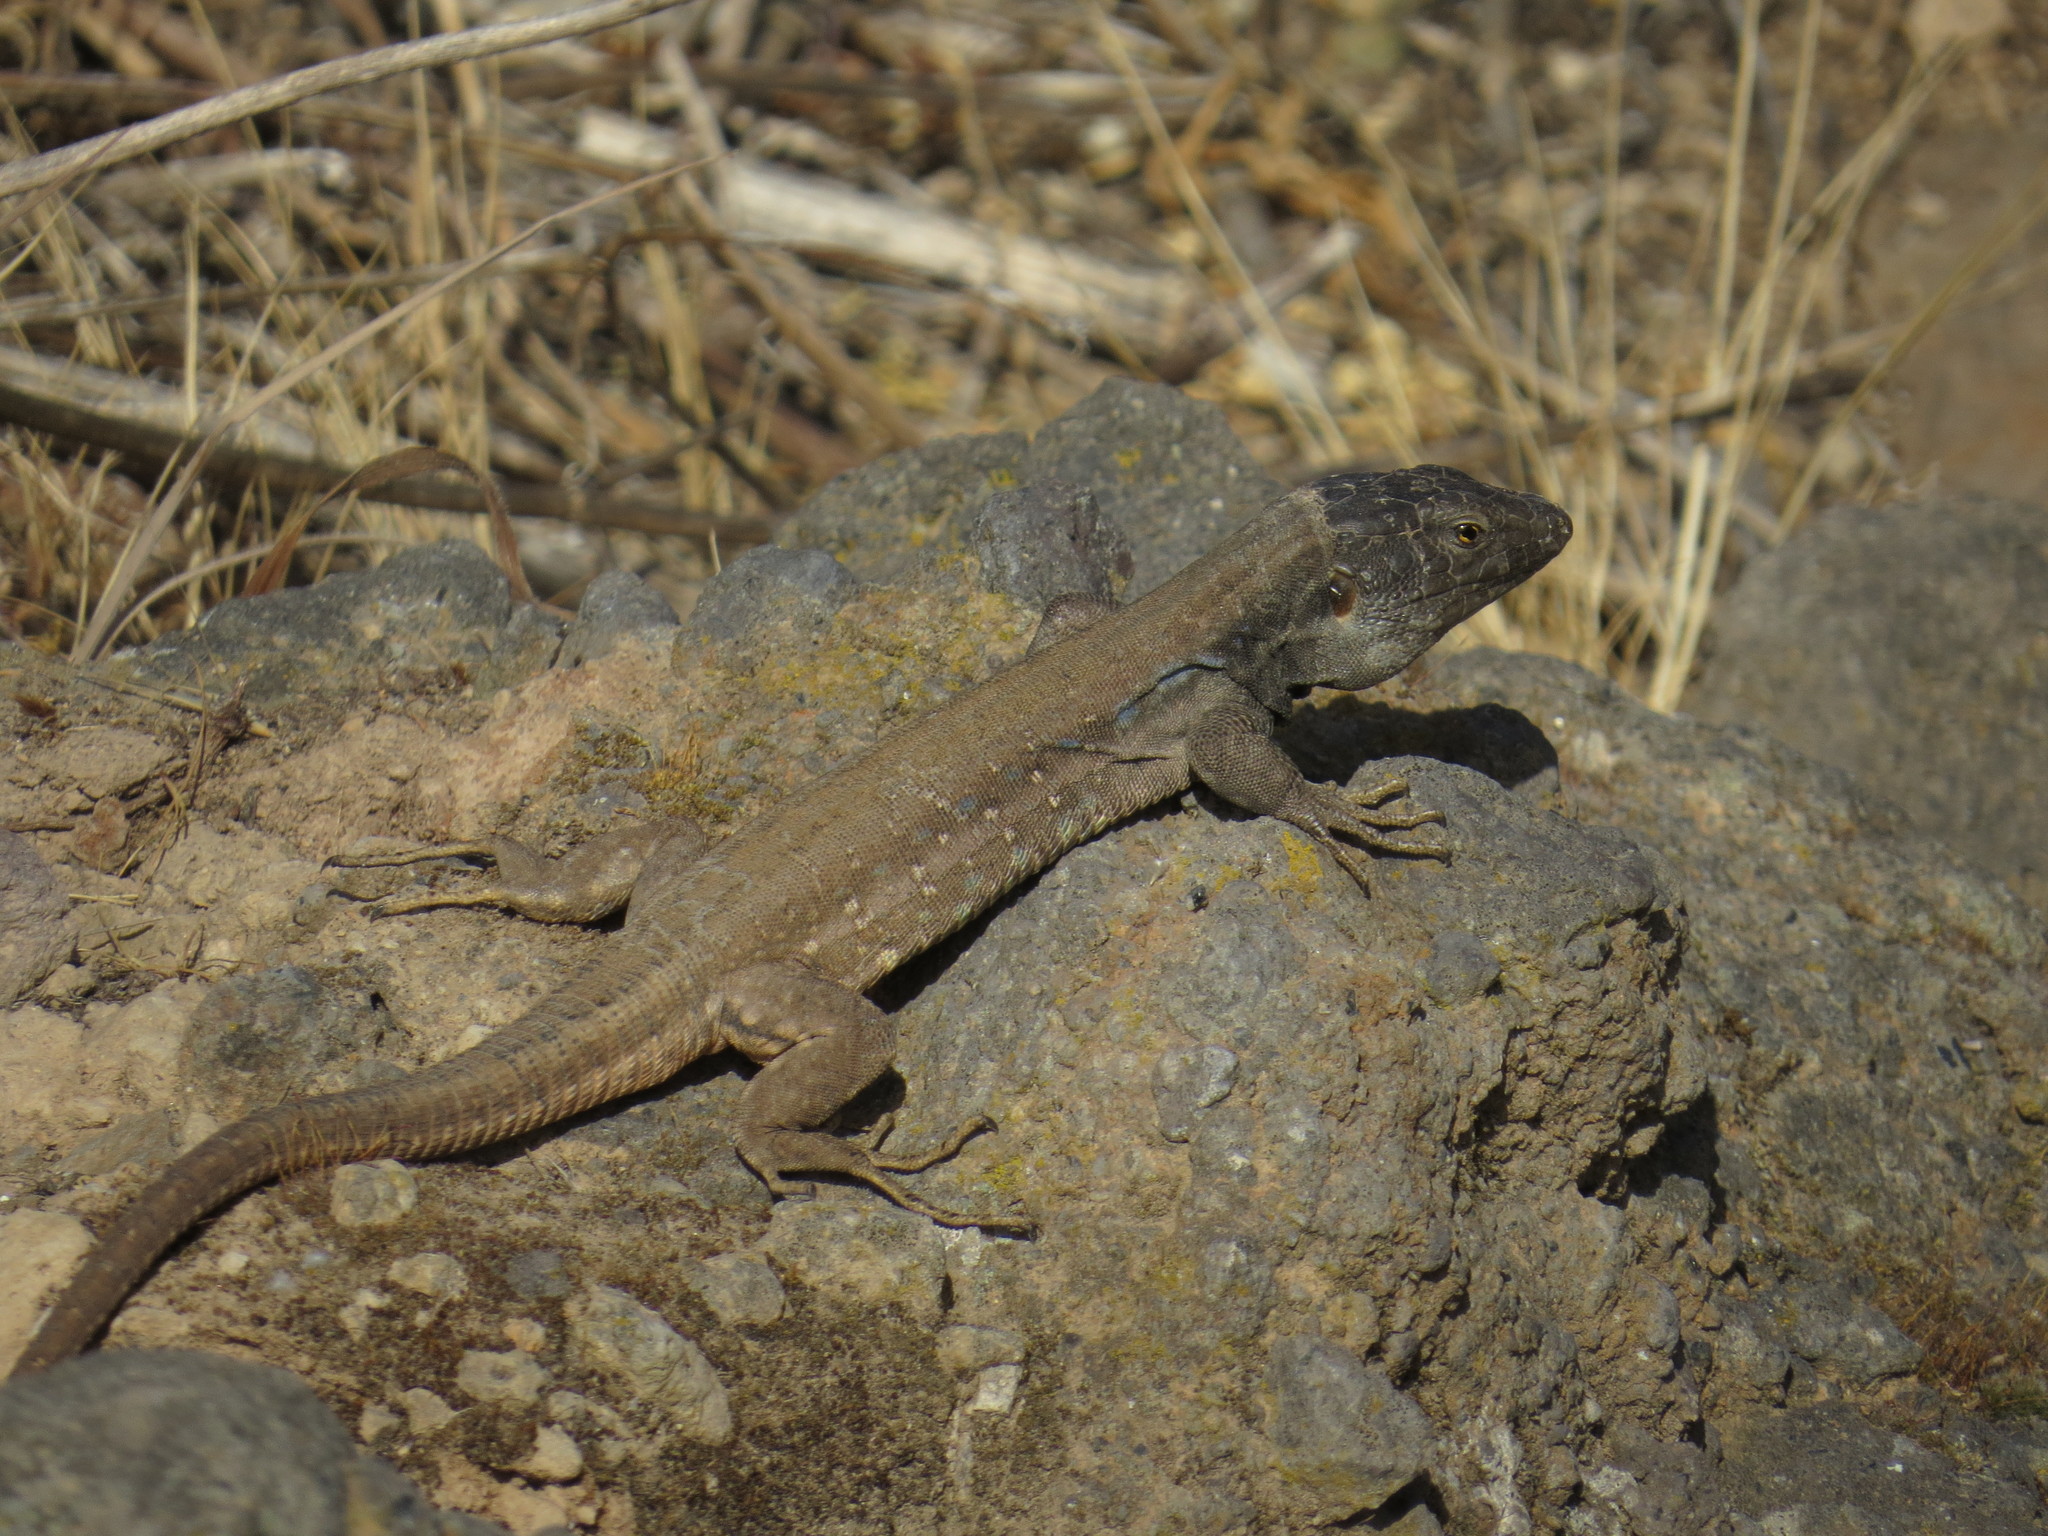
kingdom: Animalia
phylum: Chordata
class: Squamata
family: Lacertidae
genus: Gallotia
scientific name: Gallotia galloti
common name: Gallot's lizard
